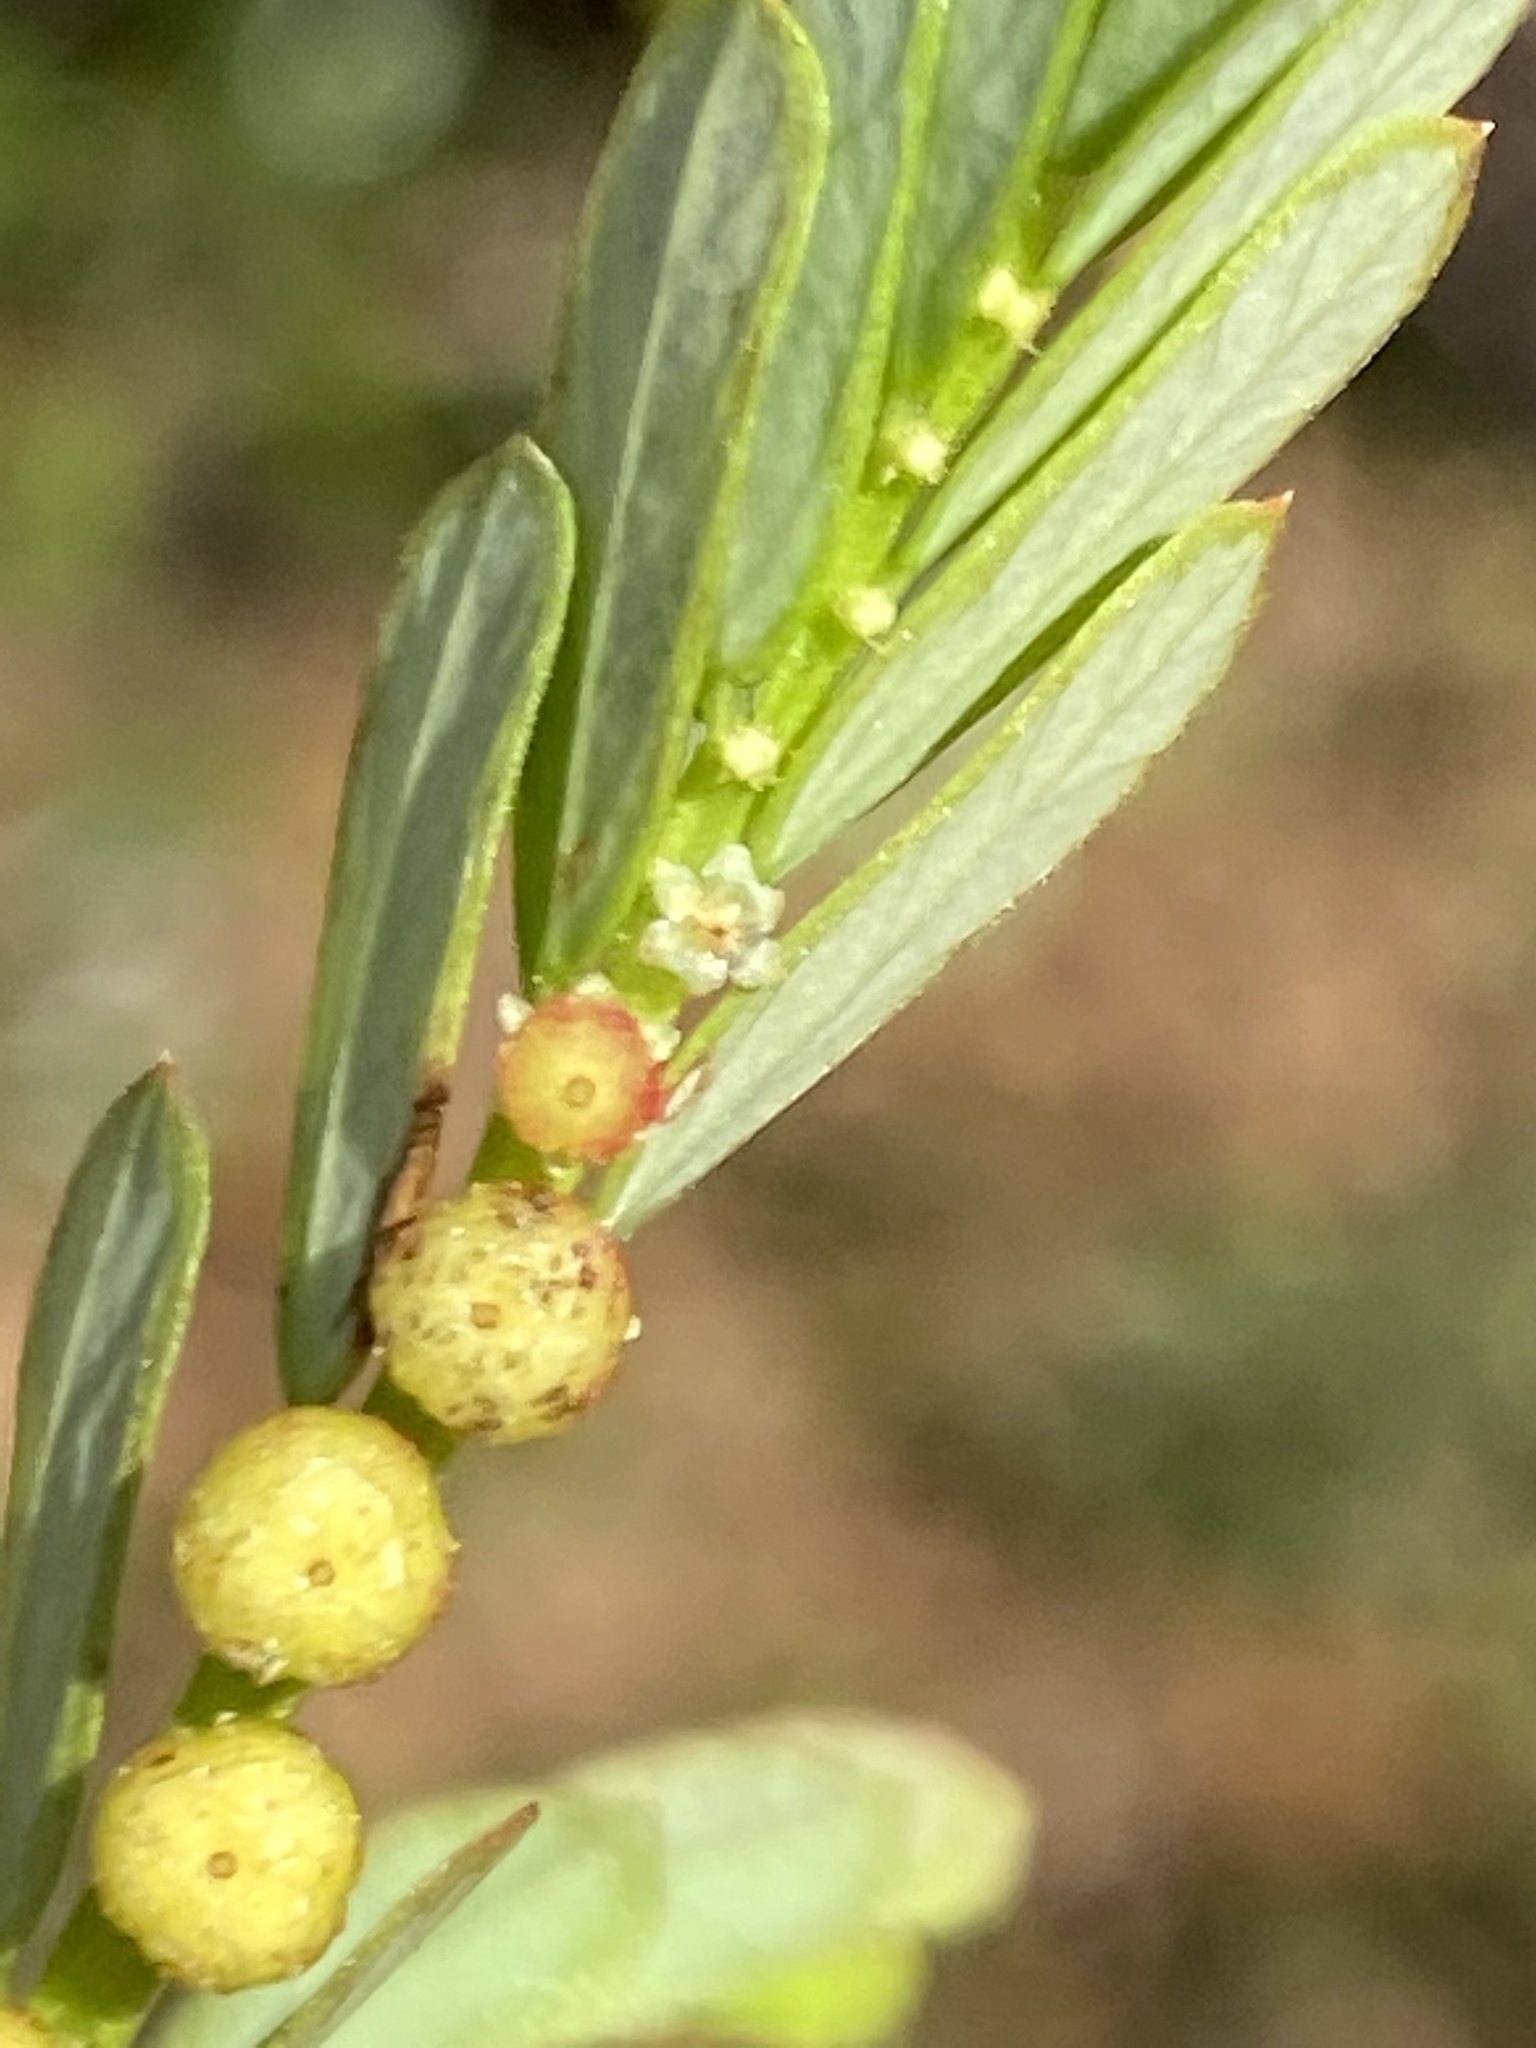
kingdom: Plantae
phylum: Tracheophyta
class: Magnoliopsida
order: Malpighiales
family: Phyllanthaceae
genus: Phyllanthus
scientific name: Phyllanthus urinaria
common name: Chamber bitter
